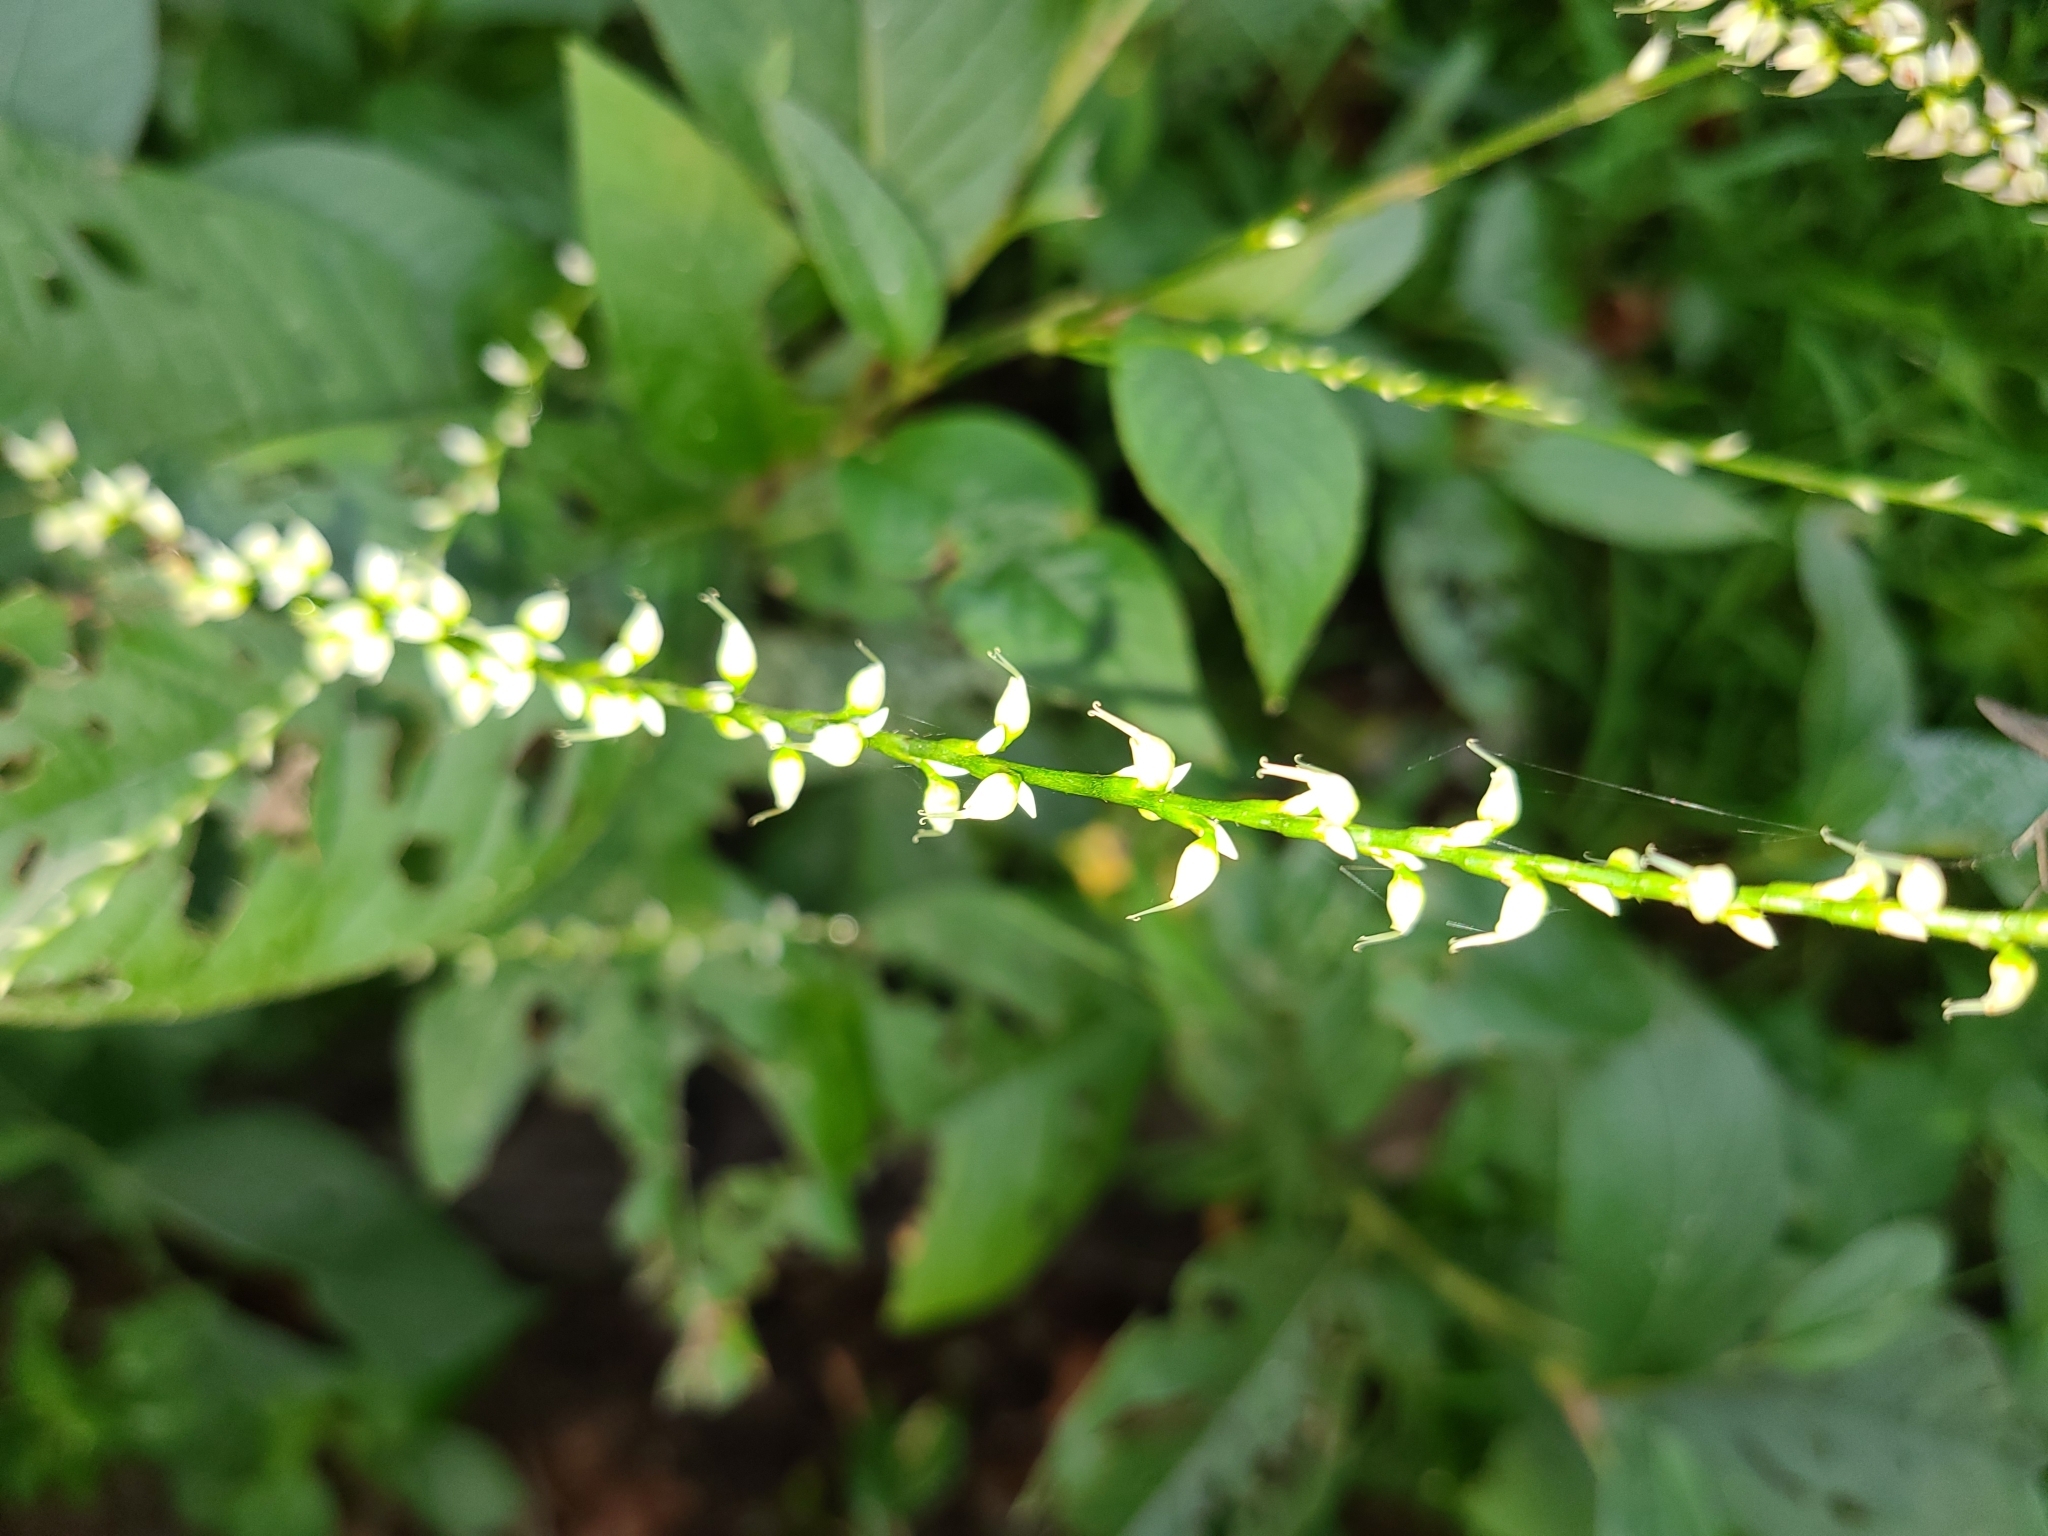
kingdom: Plantae
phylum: Tracheophyta
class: Magnoliopsida
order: Caryophyllales
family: Polygonaceae
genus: Persicaria
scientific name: Persicaria virginiana
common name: Jumpseed
